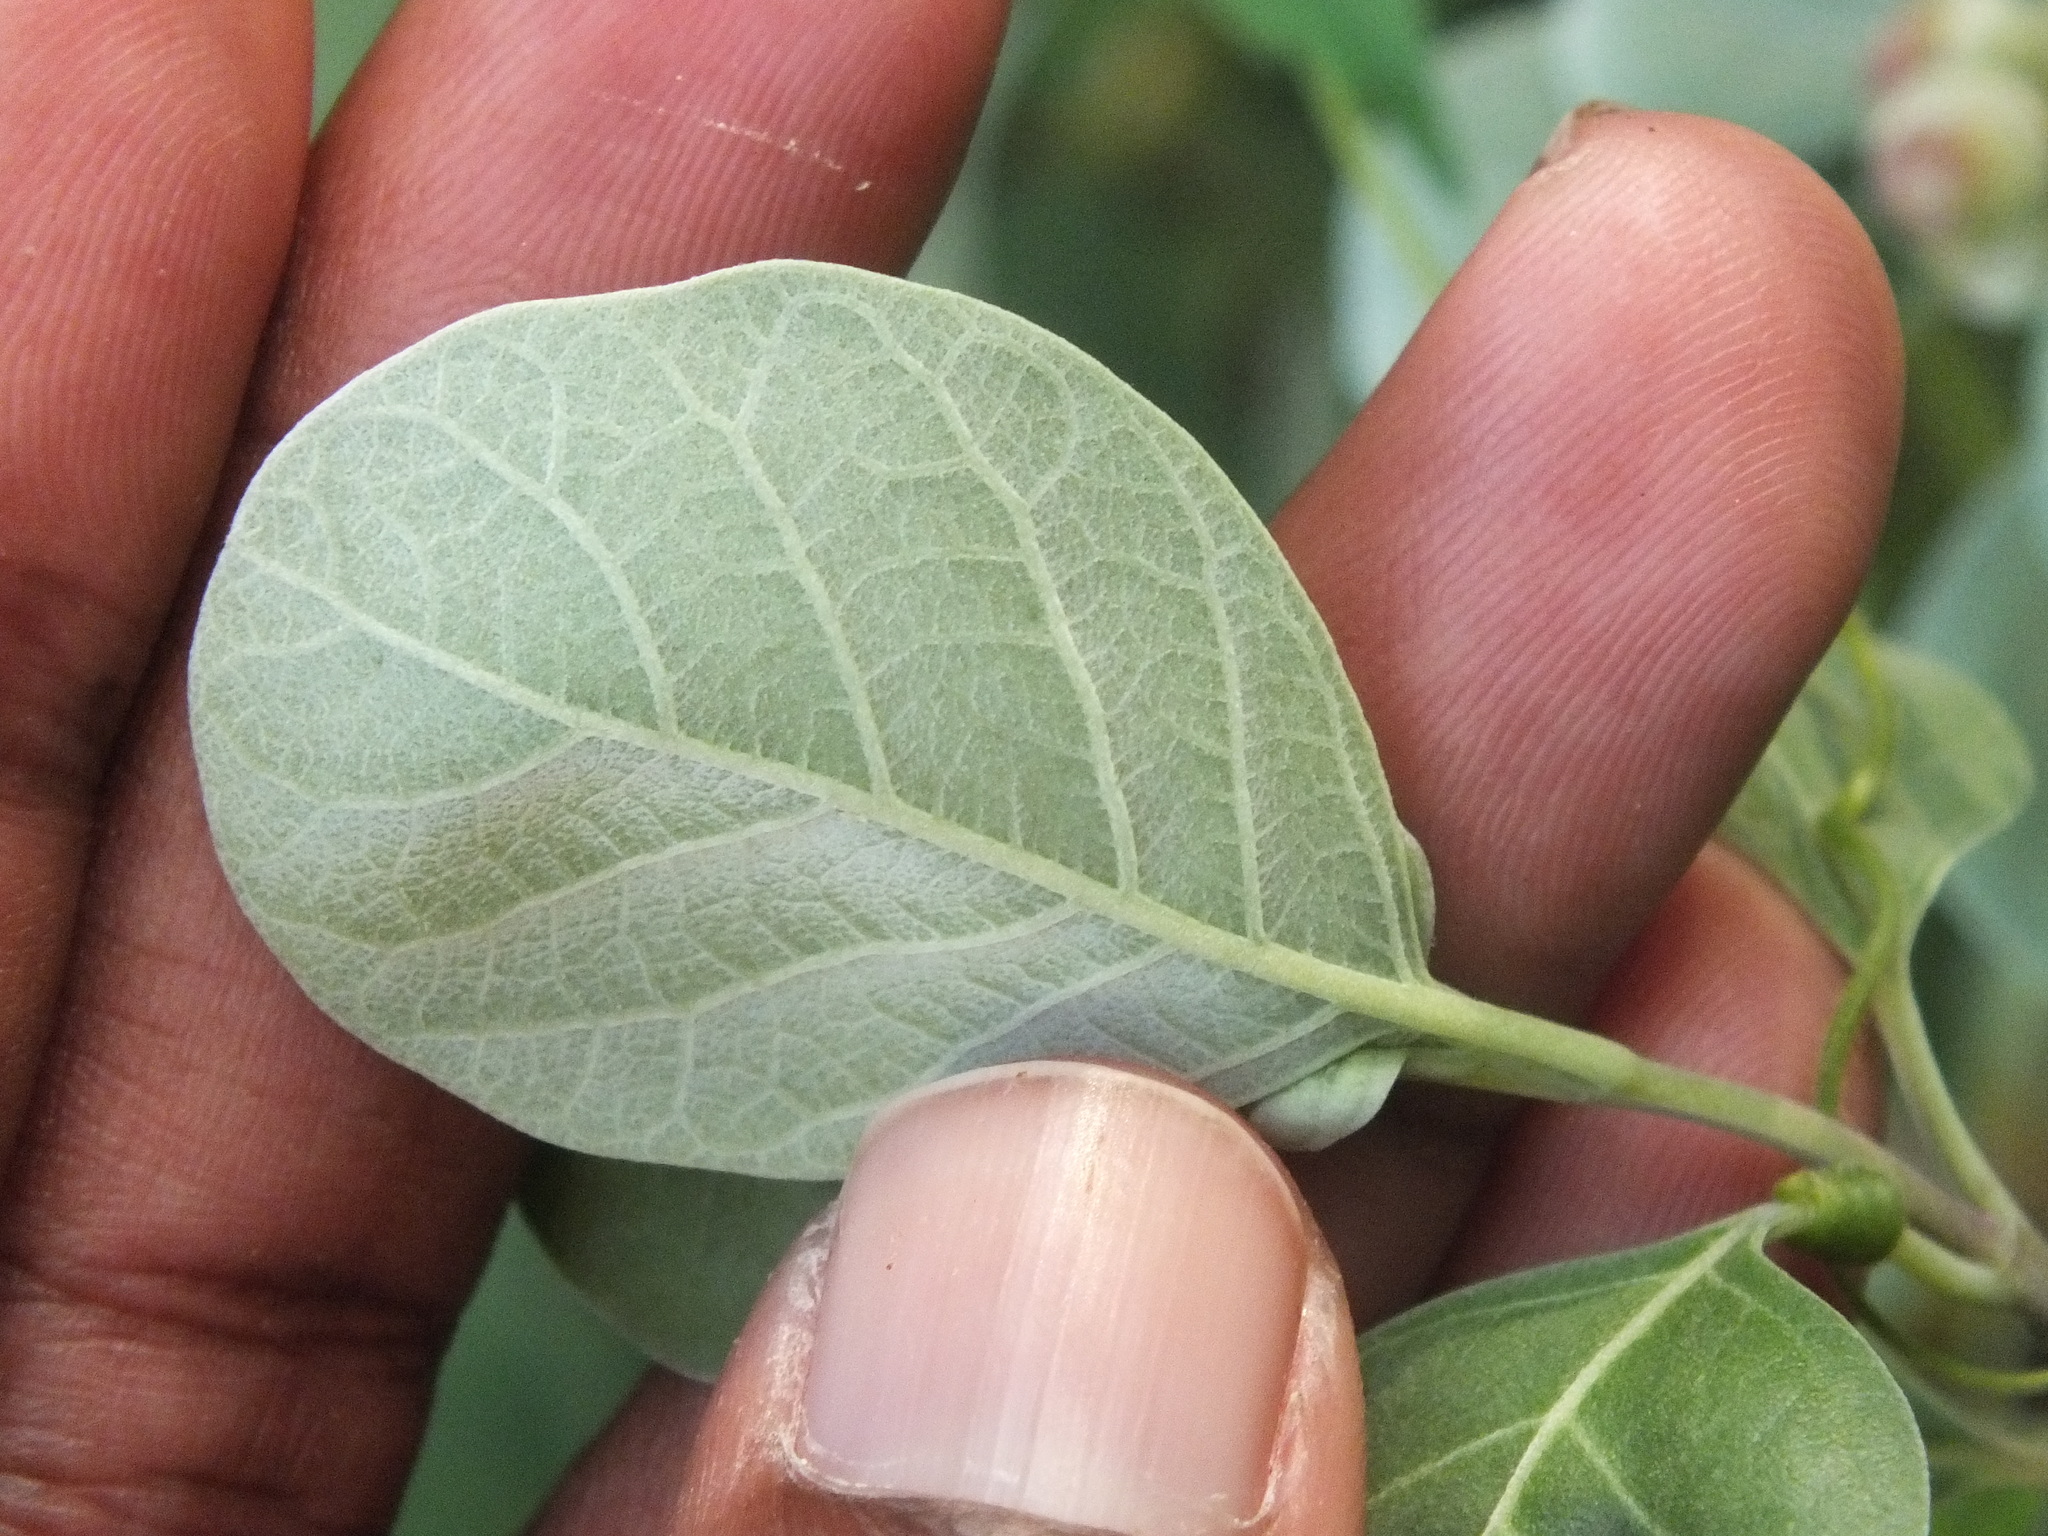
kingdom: Plantae
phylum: Tracheophyta
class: Magnoliopsida
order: Lamiales
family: Lamiaceae
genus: Vitex
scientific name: Vitex rotundifolia
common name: Beach vitex
